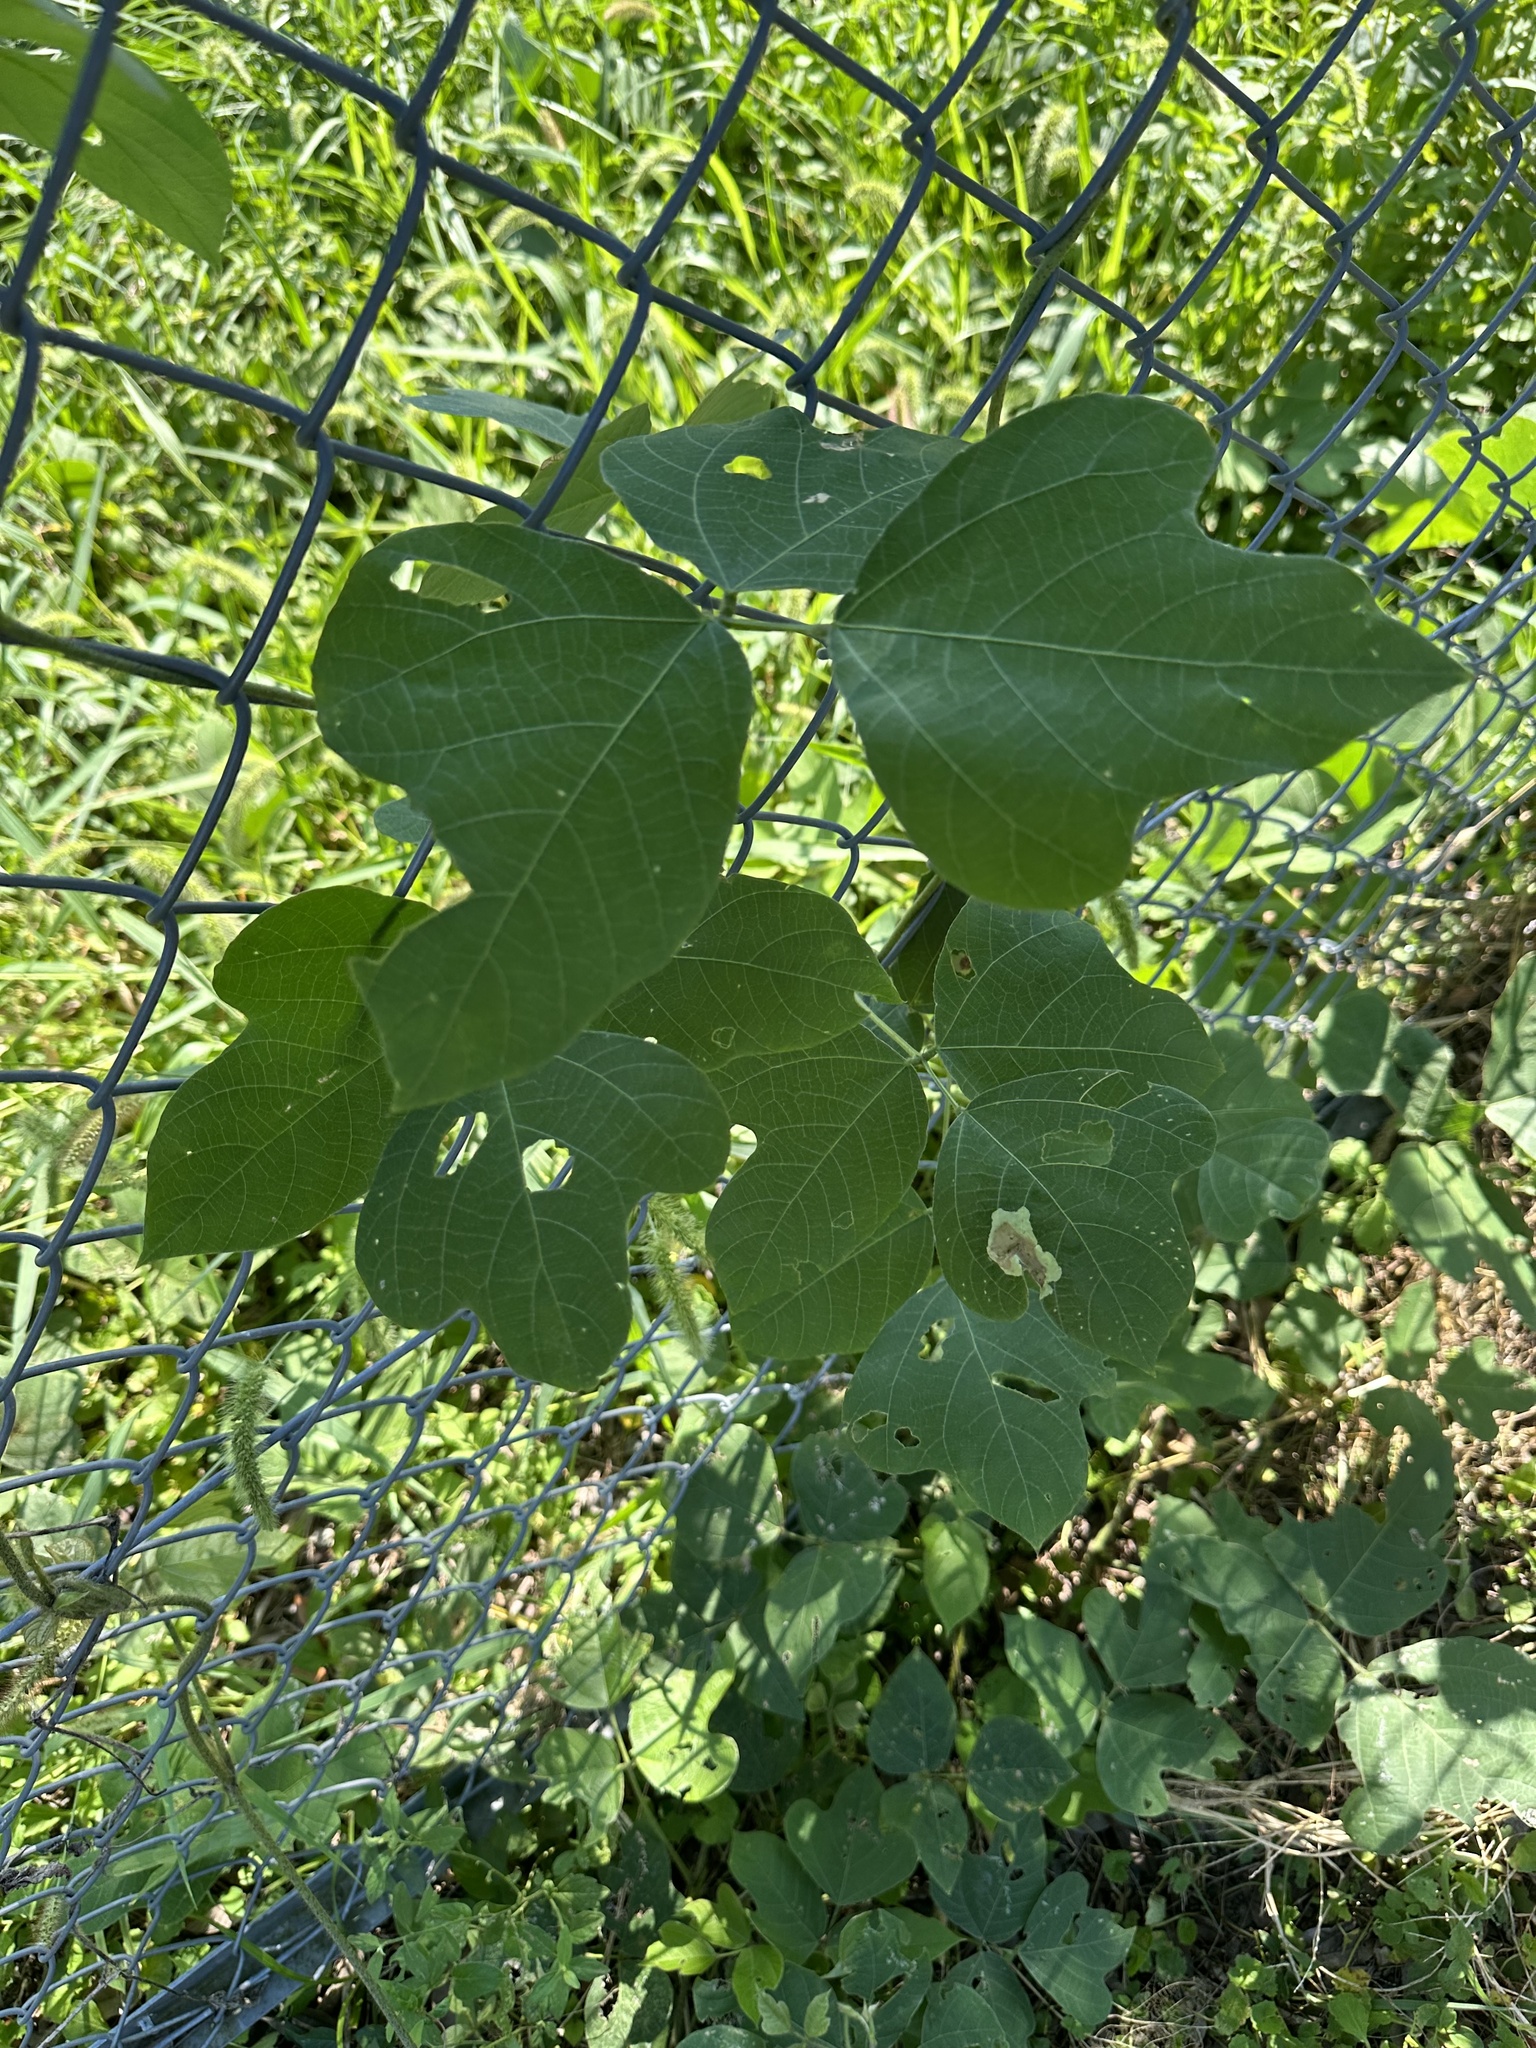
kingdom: Plantae
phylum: Tracheophyta
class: Magnoliopsida
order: Fabales
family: Fabaceae
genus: Pueraria
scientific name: Pueraria montana
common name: Kudzu
